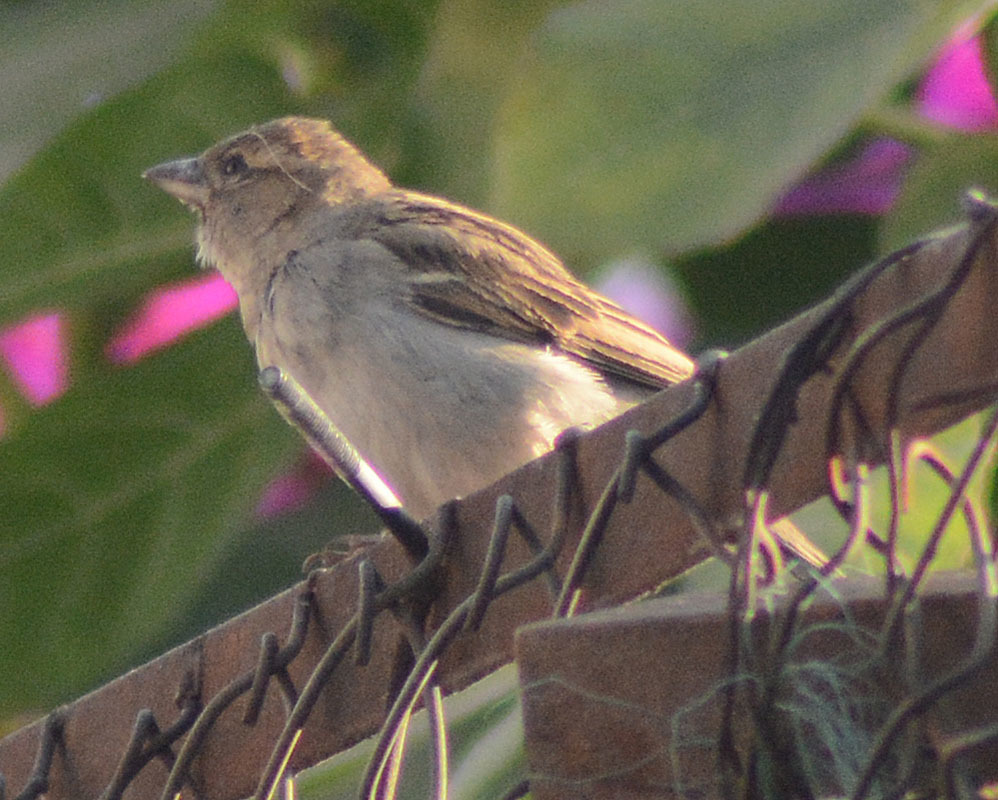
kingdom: Animalia
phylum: Chordata
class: Aves
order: Passeriformes
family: Passeridae
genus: Passer
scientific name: Passer domesticus
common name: House sparrow
